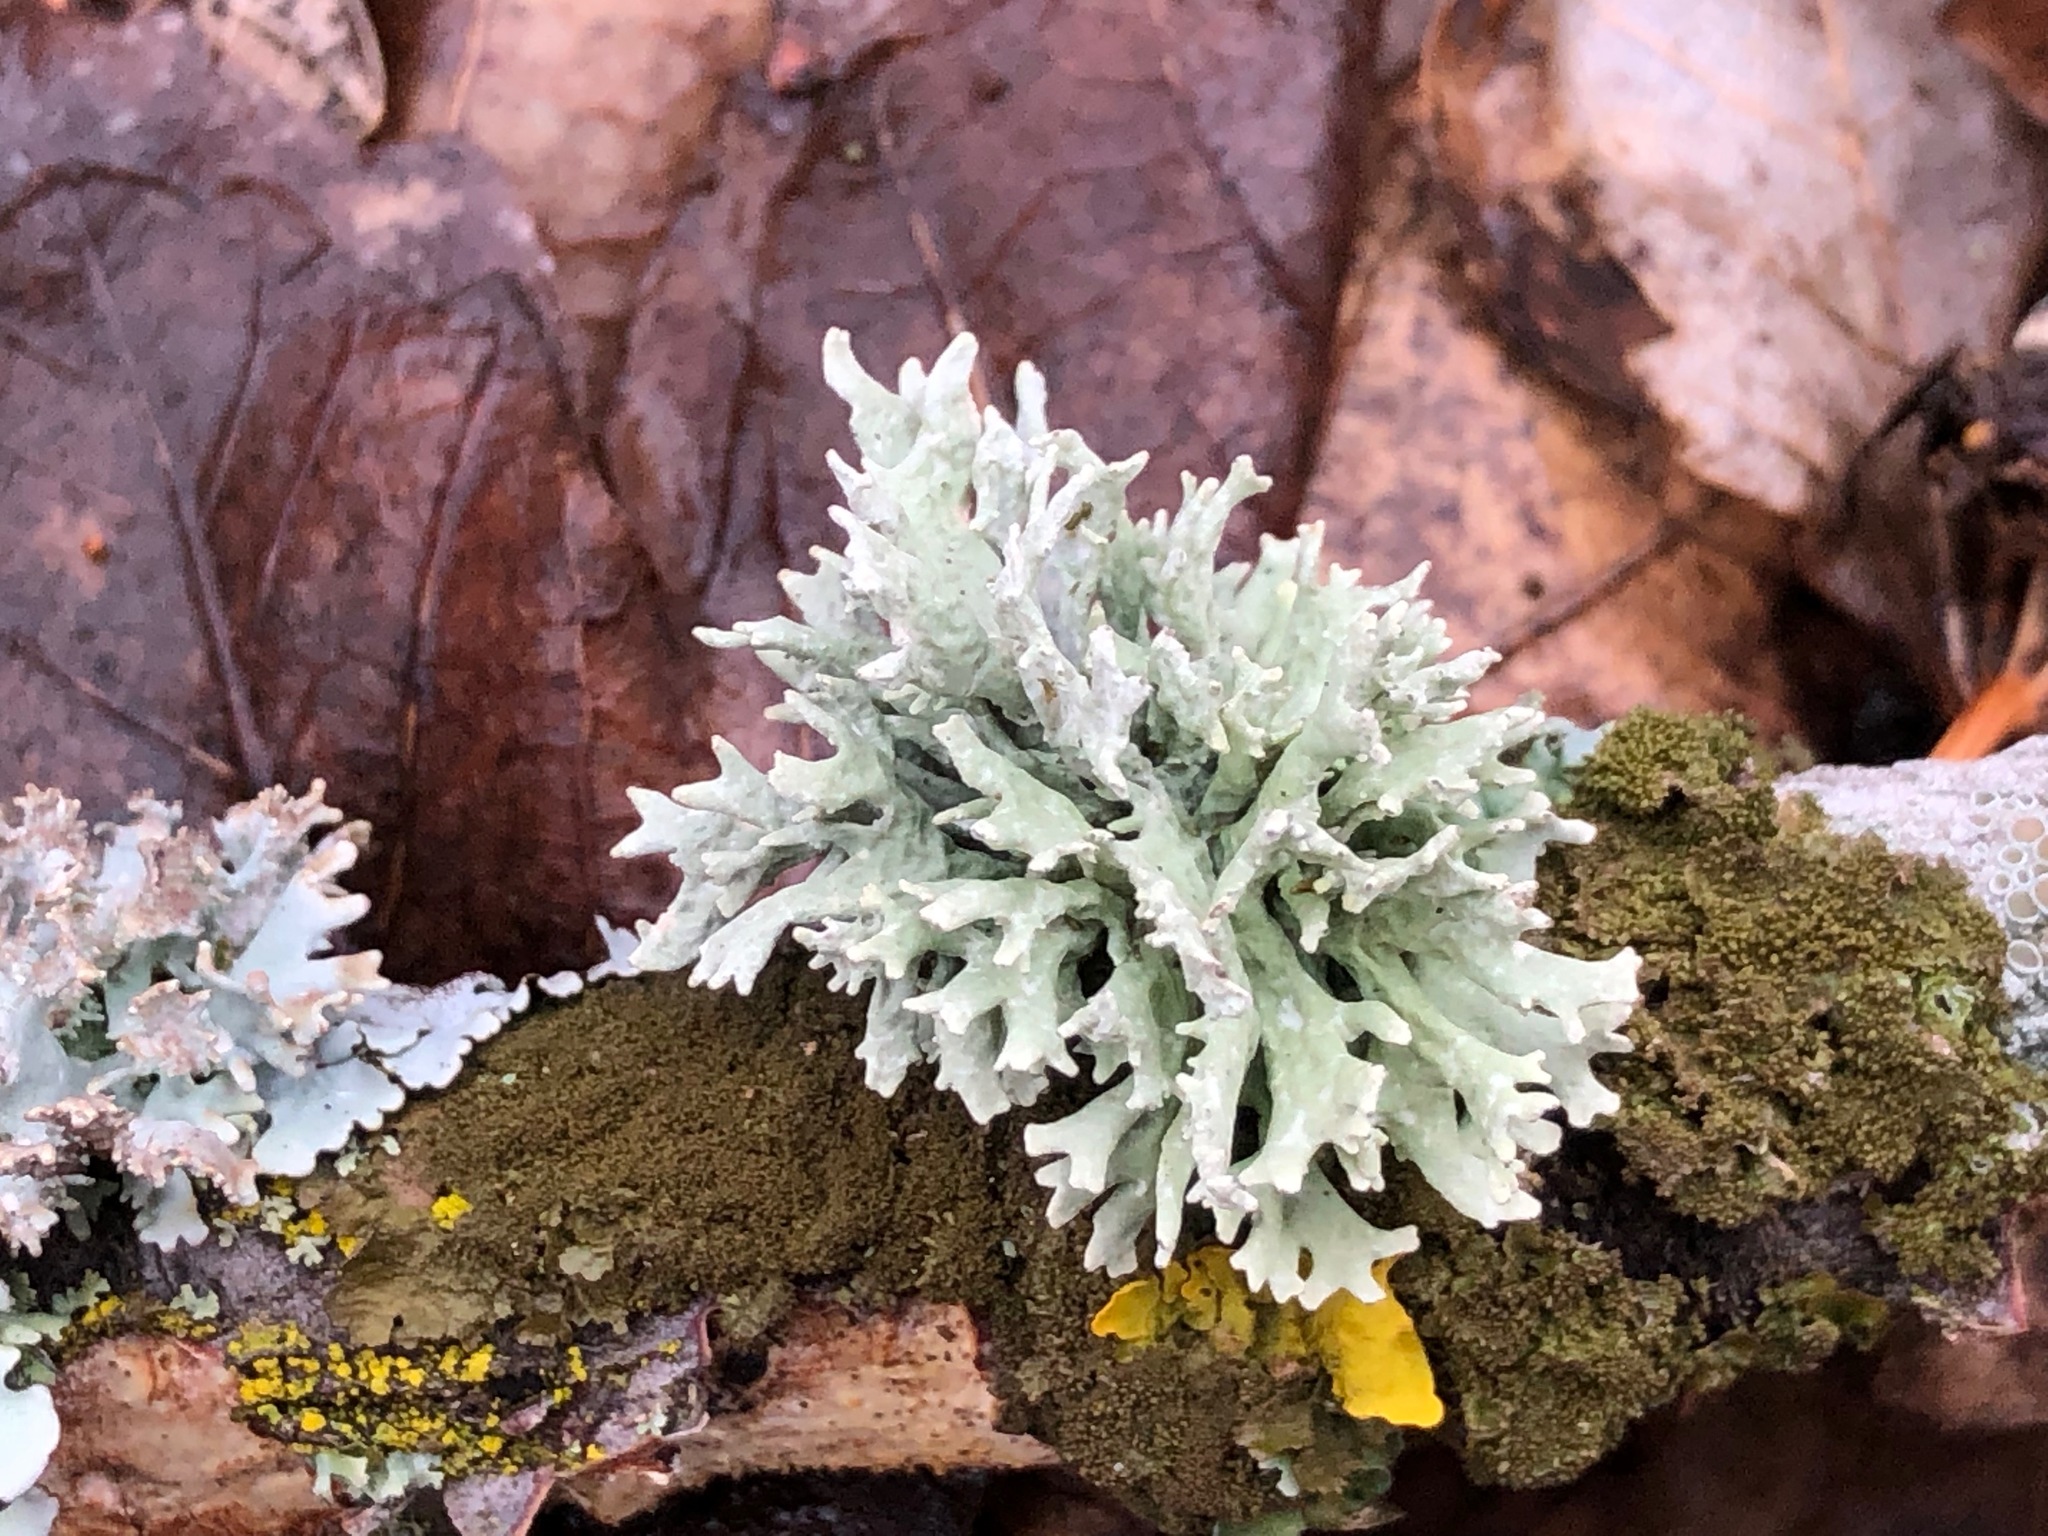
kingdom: Fungi
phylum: Ascomycota
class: Lecanoromycetes
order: Lecanorales
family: Parmeliaceae
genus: Evernia
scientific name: Evernia prunastri
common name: Oak moss
